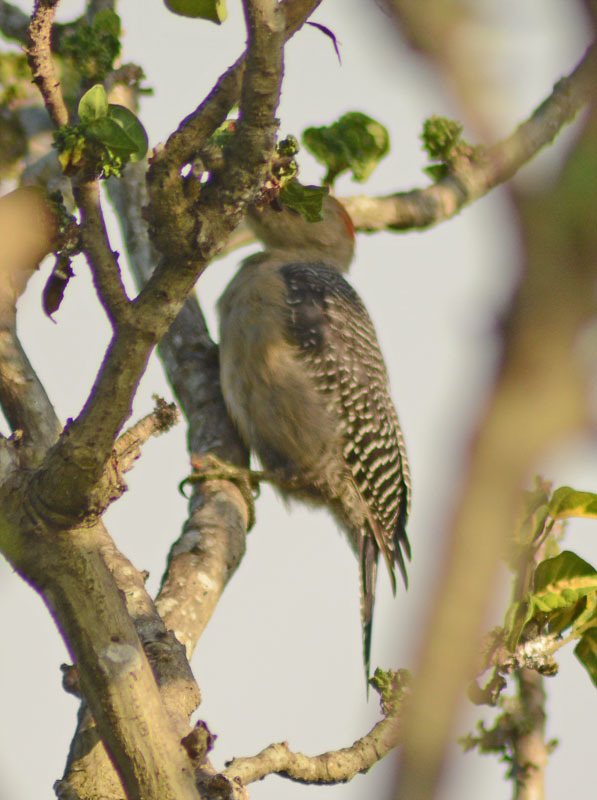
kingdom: Animalia
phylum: Chordata
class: Aves
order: Piciformes
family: Picidae
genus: Melanerpes
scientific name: Melanerpes aurifrons
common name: Golden-fronted woodpecker
